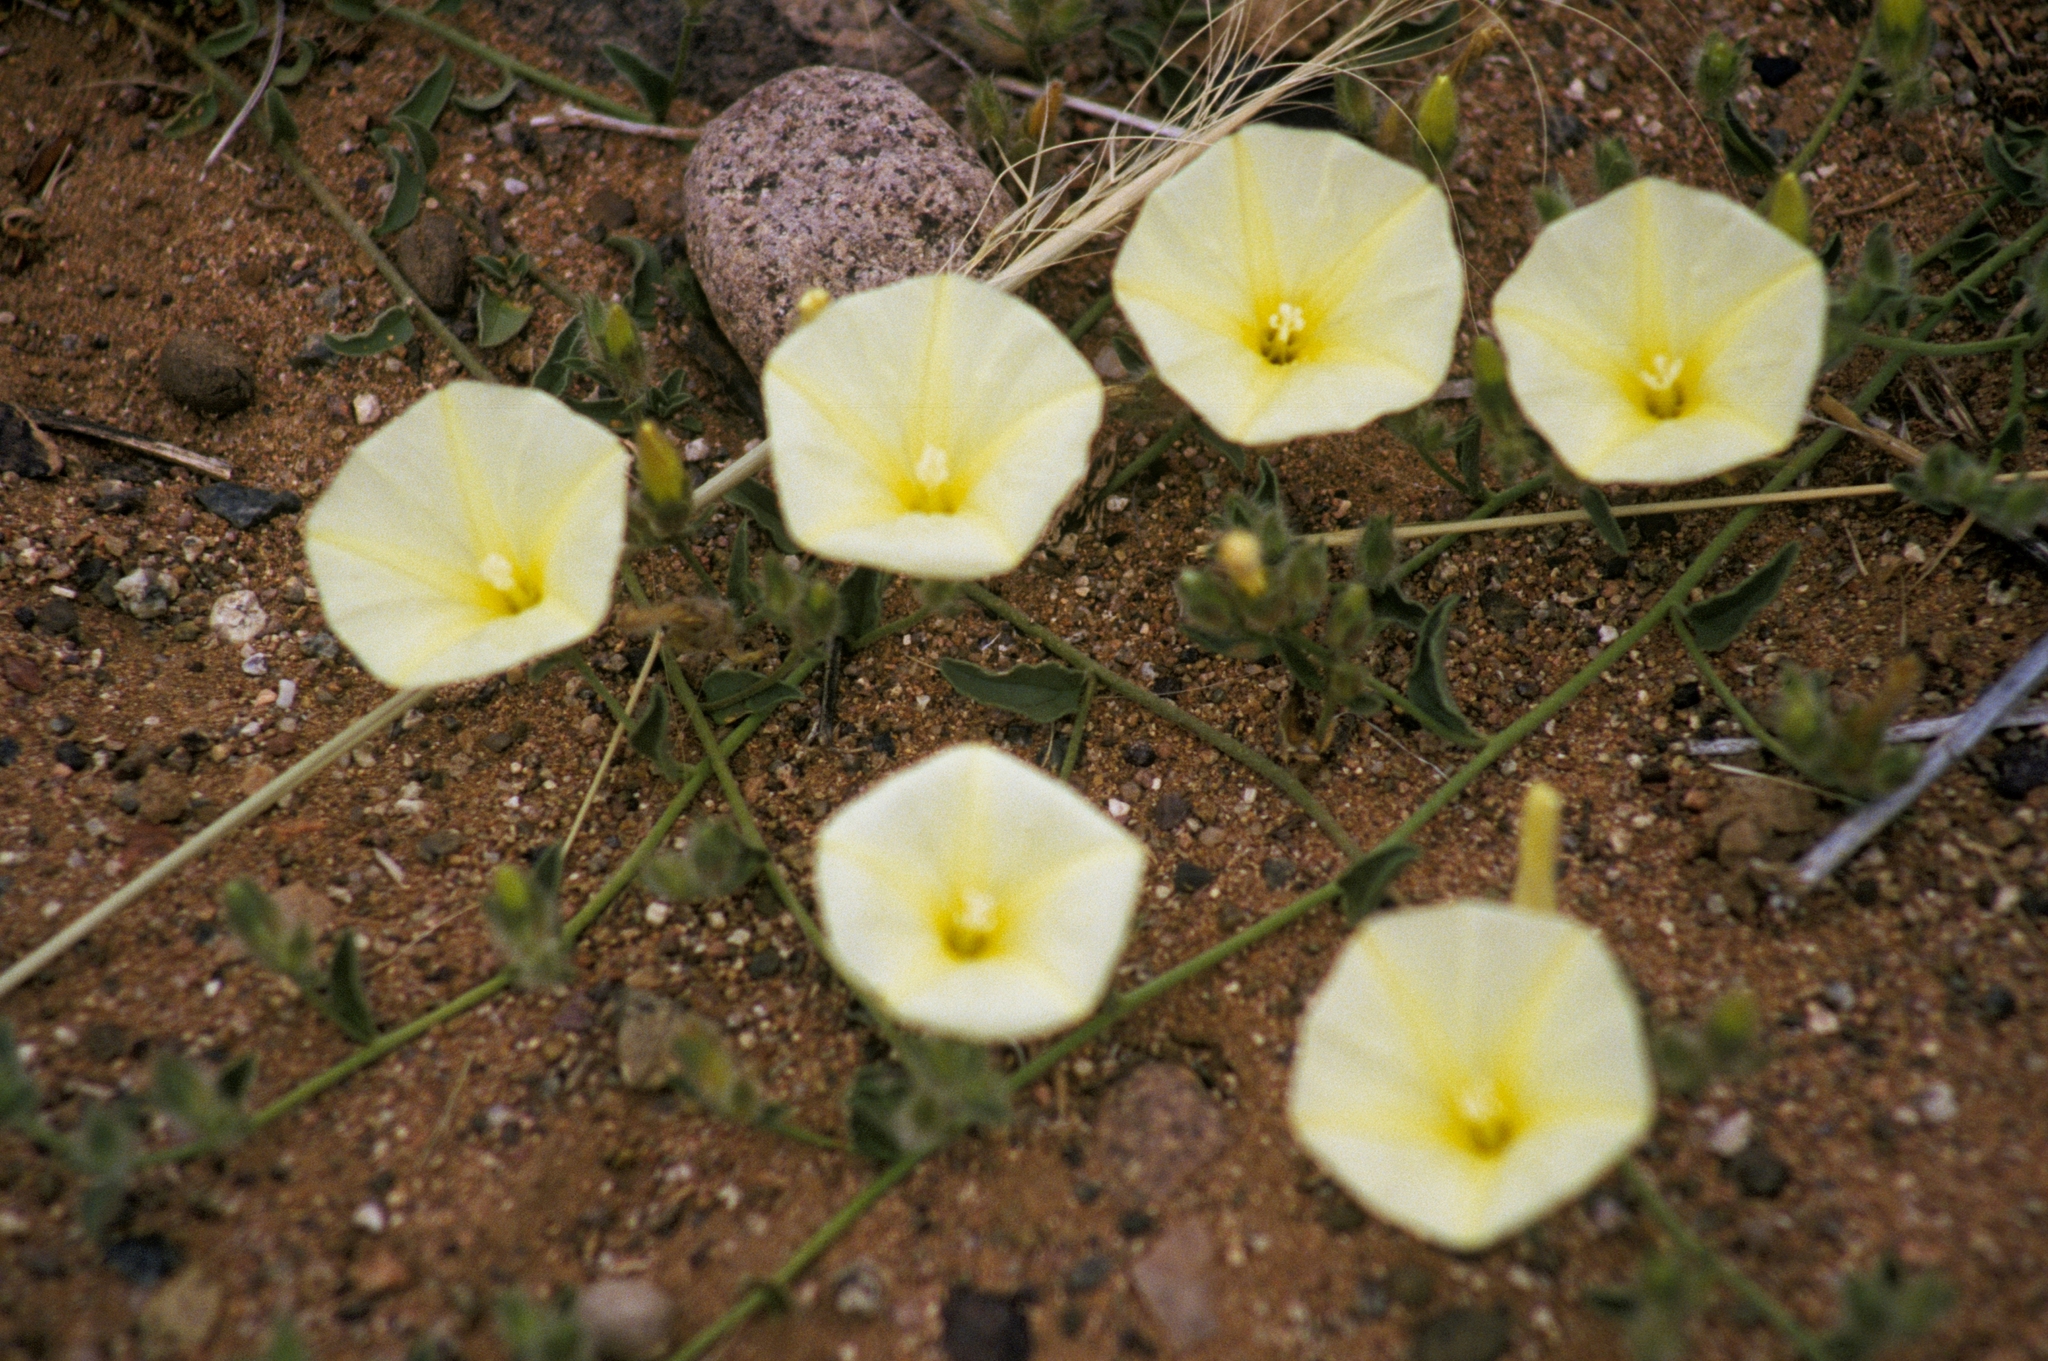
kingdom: Plantae
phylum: Tracheophyta
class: Magnoliopsida
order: Solanales
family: Convolvulaceae
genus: Convolvulus
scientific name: Convolvulus supinus
